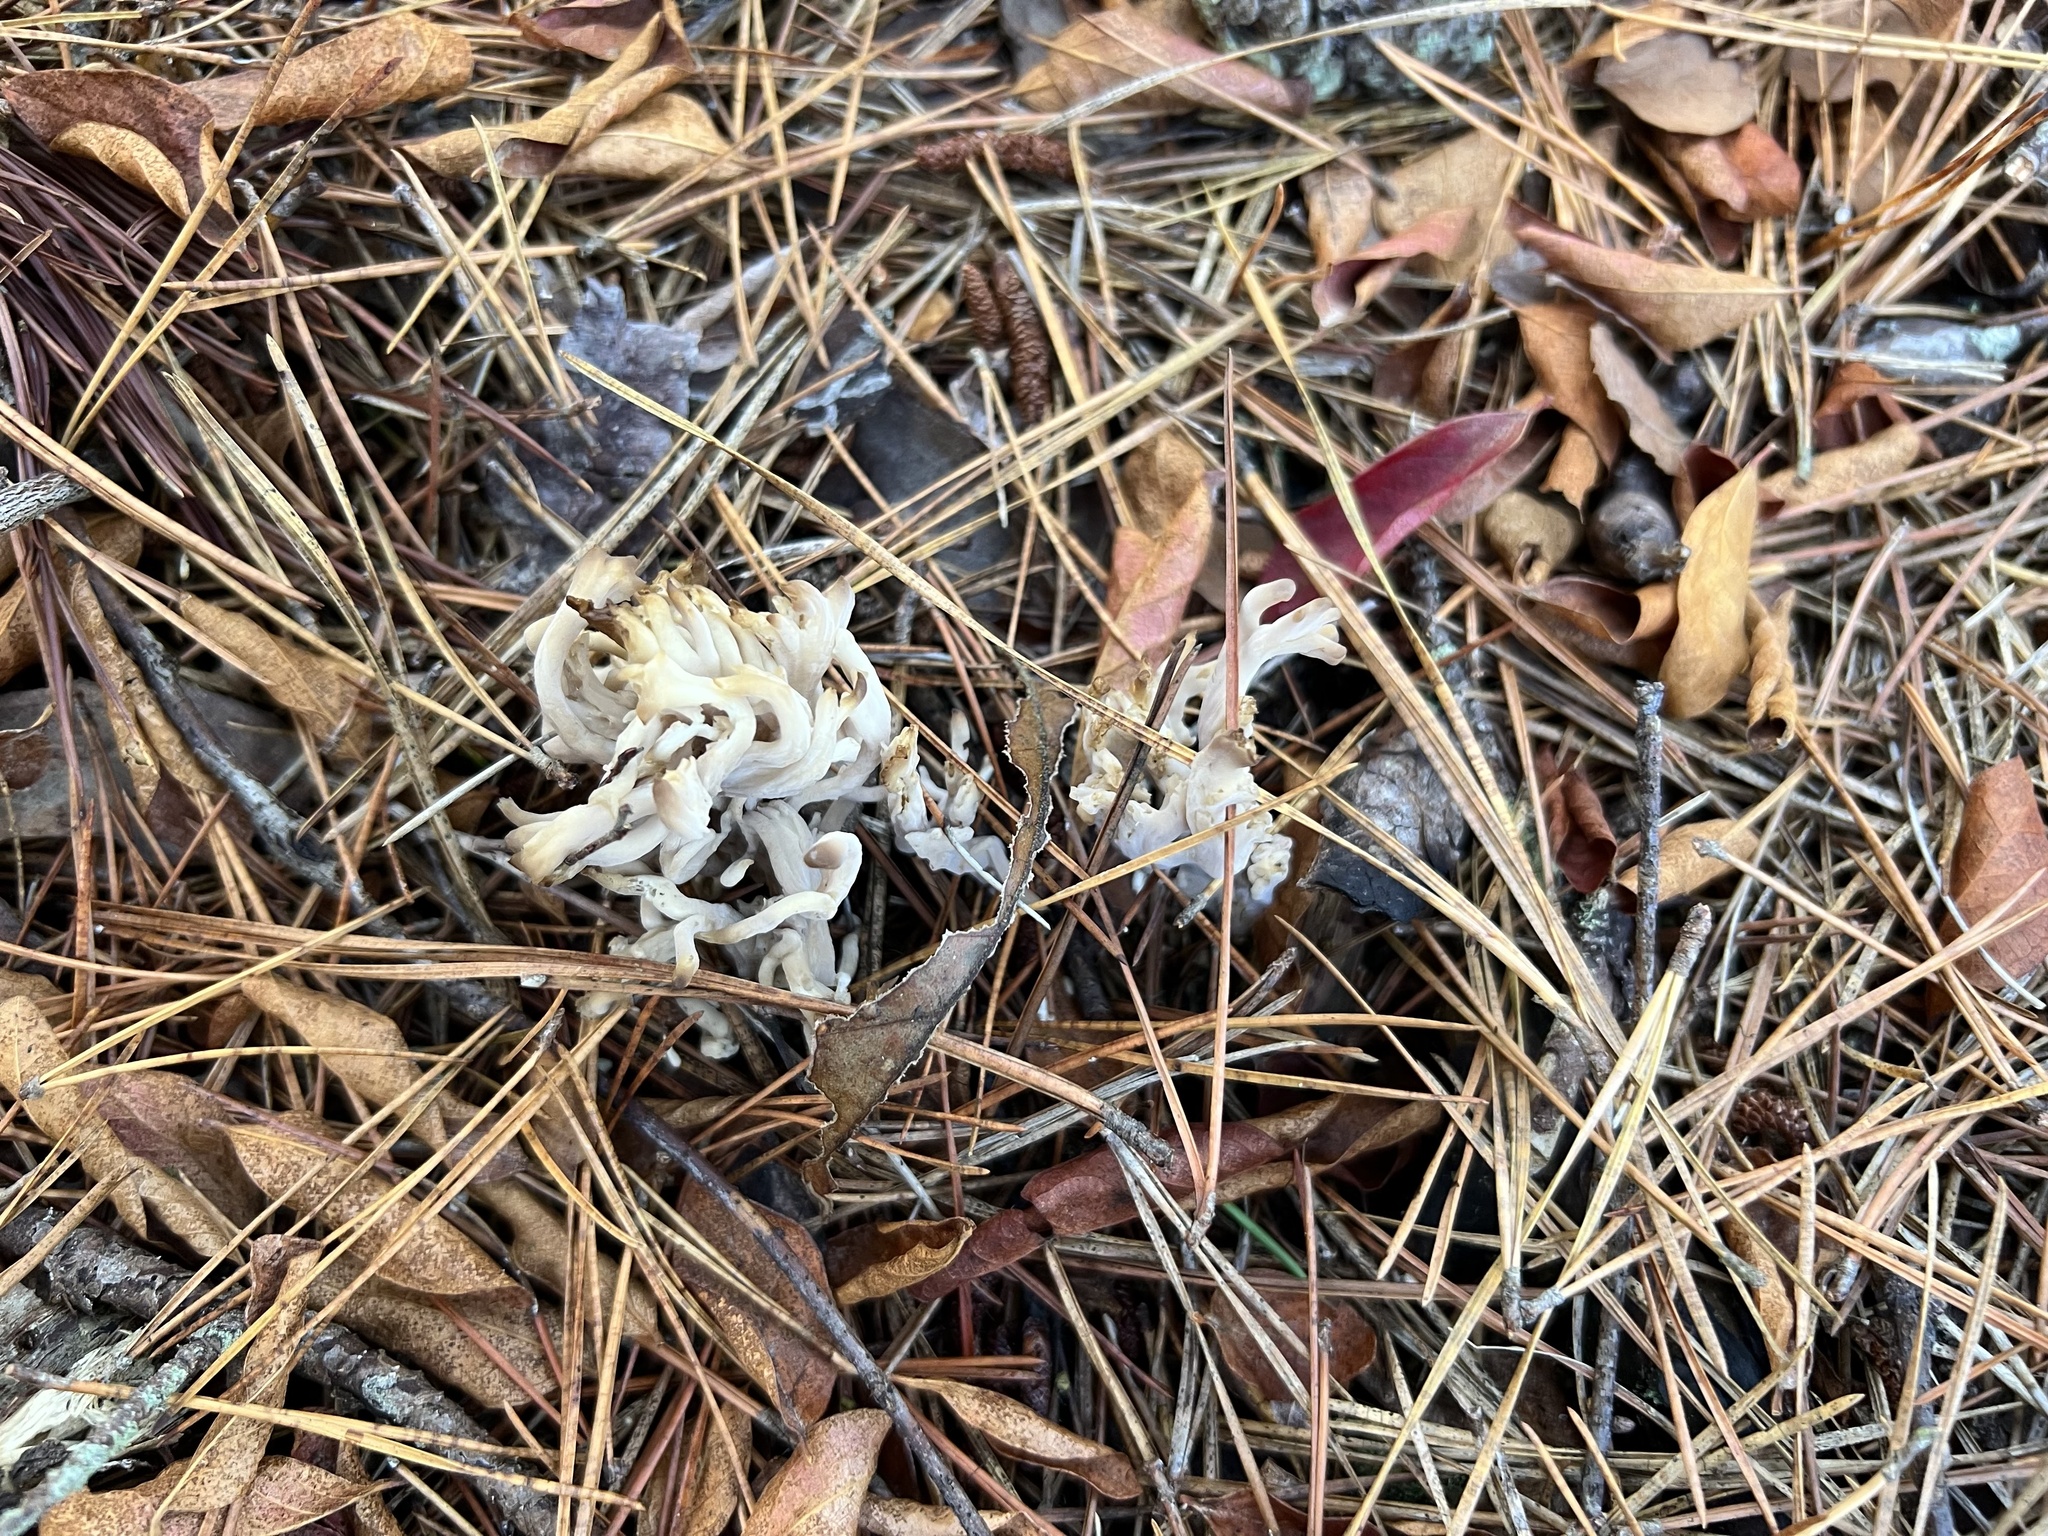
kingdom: Fungi
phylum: Basidiomycota
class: Agaricomycetes
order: Cantharellales
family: Hydnaceae
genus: Clavulina
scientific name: Clavulina coralloides
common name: Crested coral
